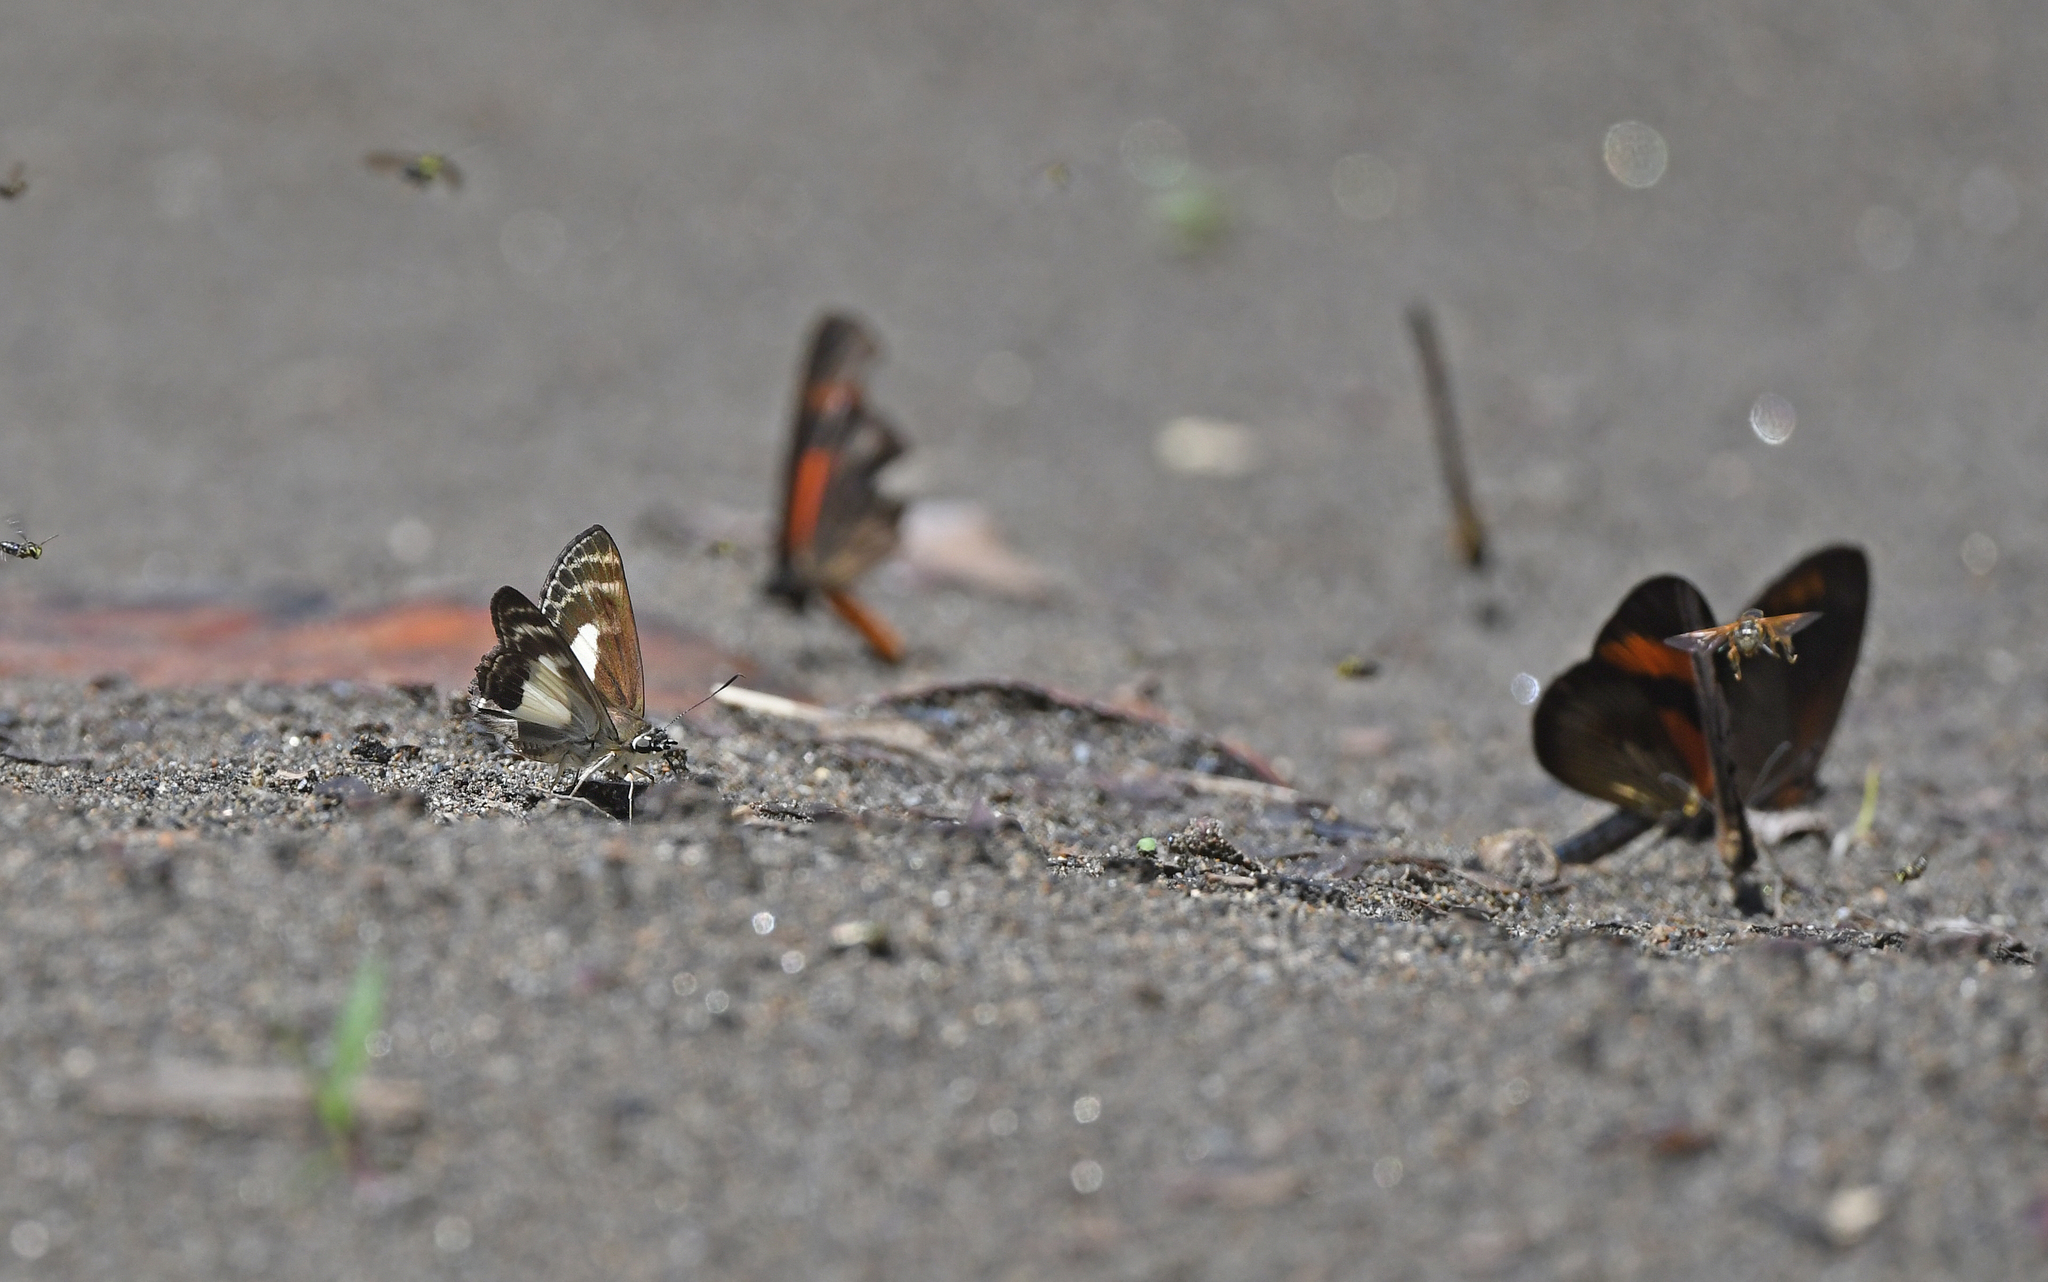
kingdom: Animalia
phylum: Arthropoda
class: Insecta
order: Lepidoptera
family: Hesperiidae
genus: Sophista
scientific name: Sophista aristoteles
